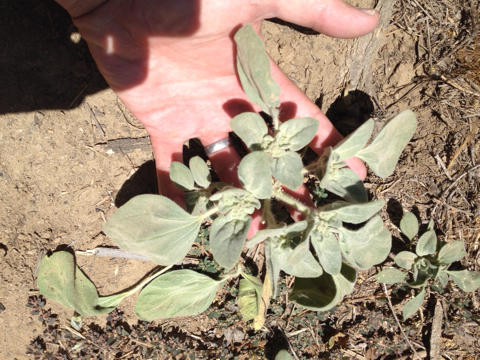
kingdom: Plantae
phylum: Tracheophyta
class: Magnoliopsida
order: Malpighiales
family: Euphorbiaceae
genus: Croton
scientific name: Croton setiger
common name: Dove weed
